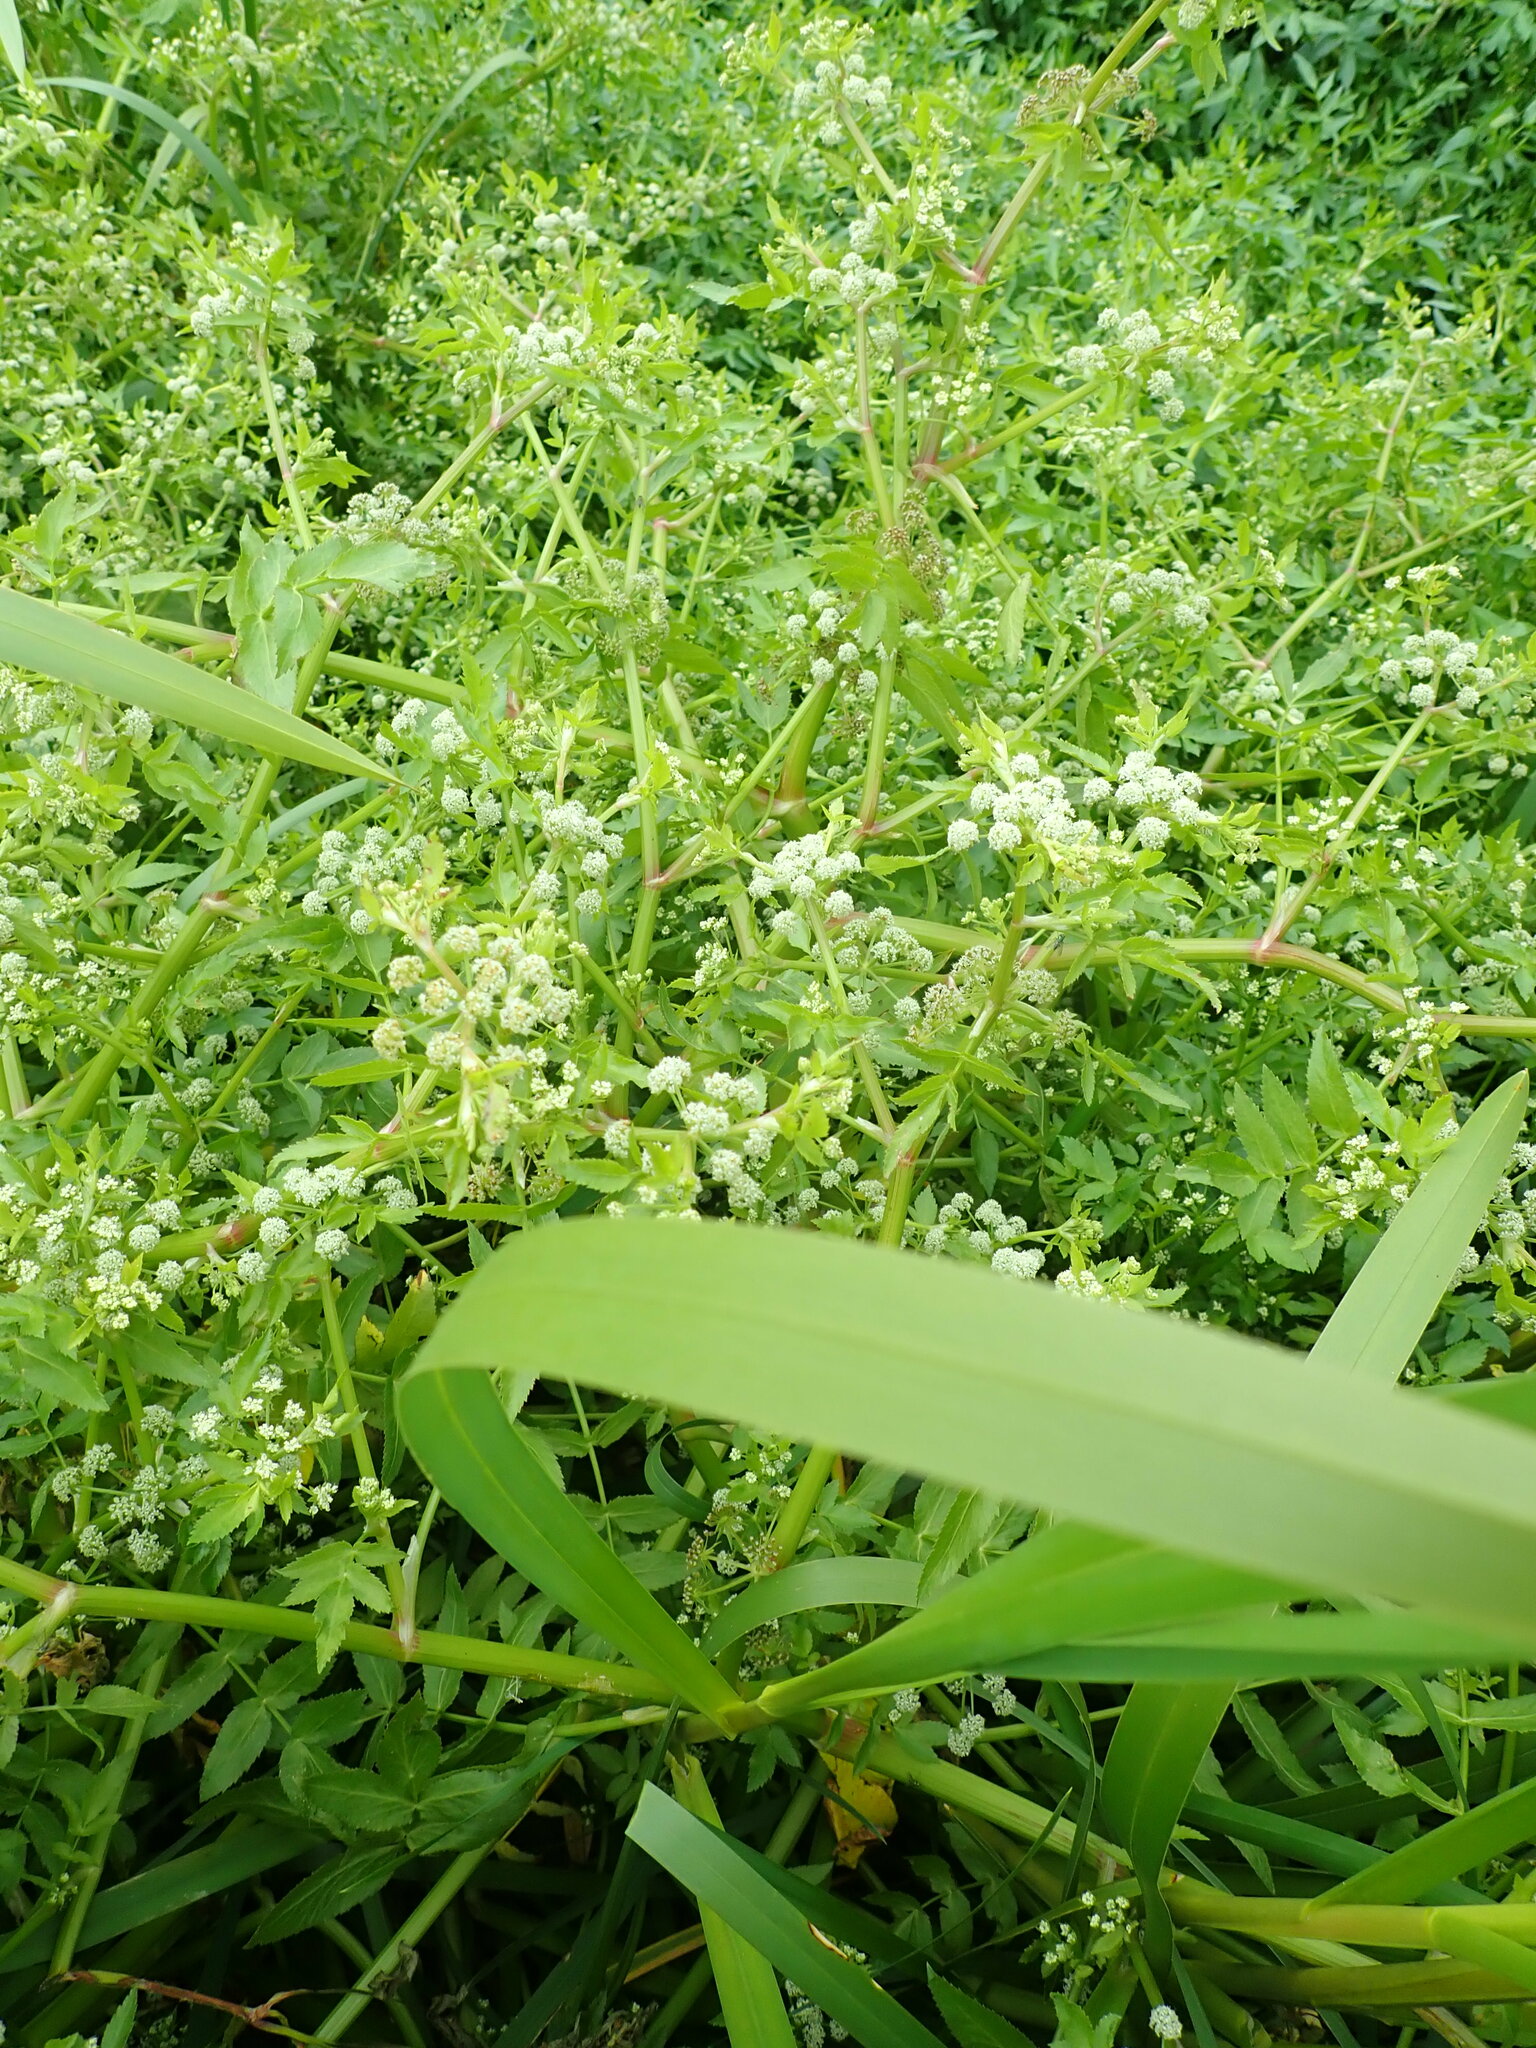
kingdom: Plantae
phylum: Tracheophyta
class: Magnoliopsida
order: Apiales
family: Apiaceae
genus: Helosciadium
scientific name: Helosciadium nodiflorum
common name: Fool's-watercress
